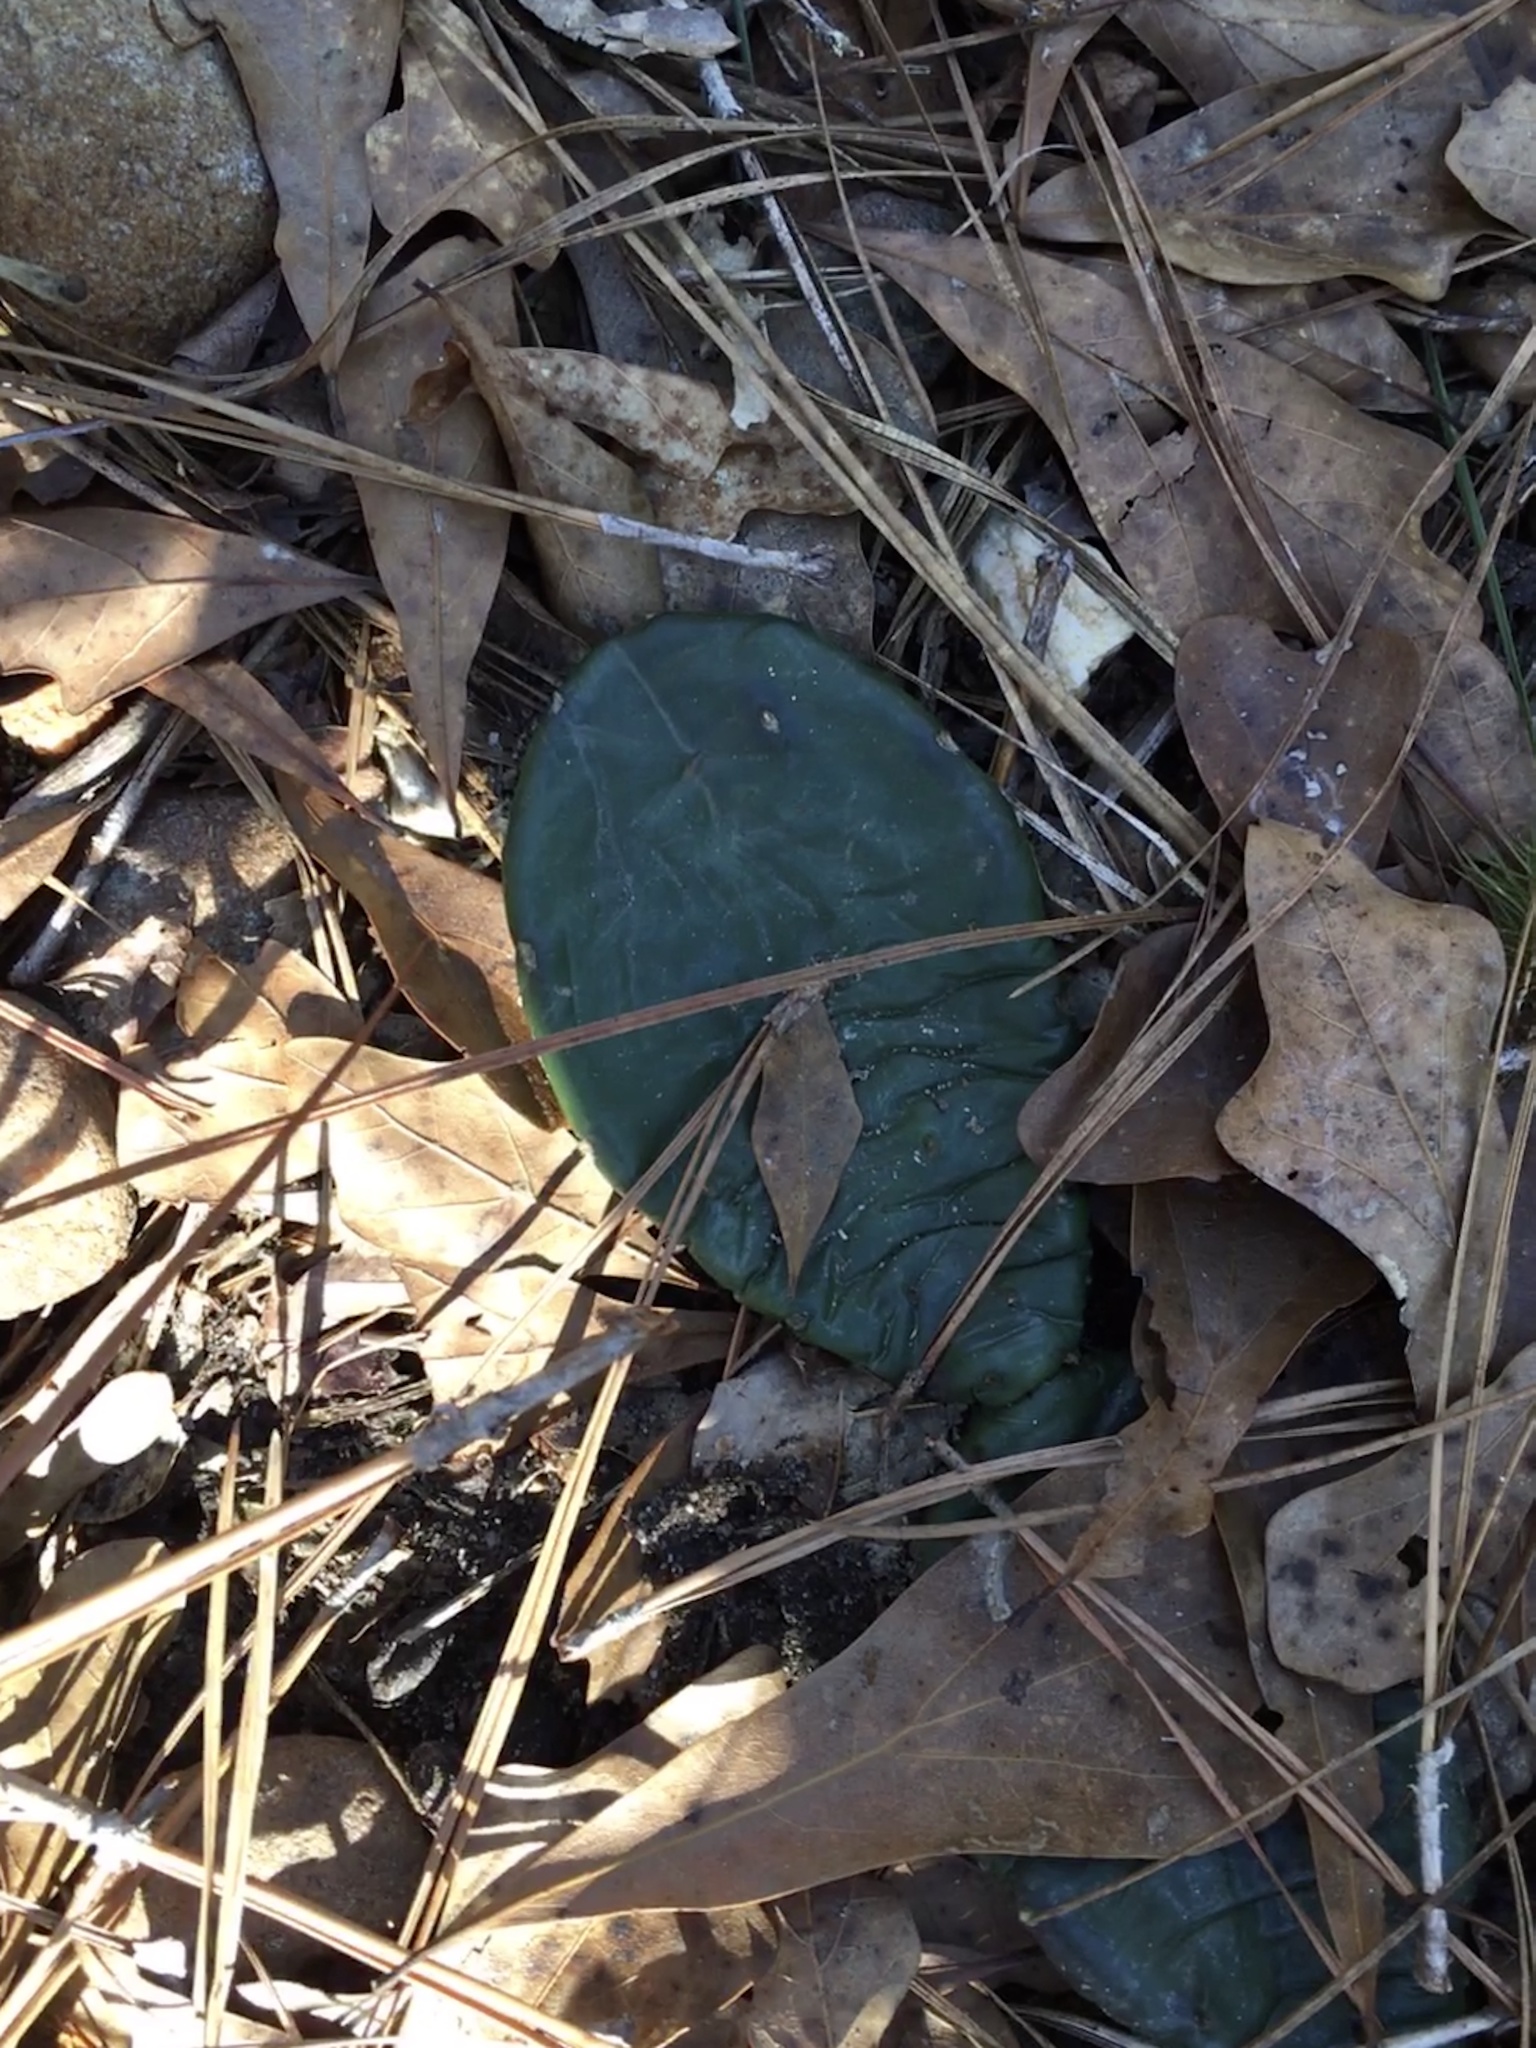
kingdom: Plantae
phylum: Tracheophyta
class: Magnoliopsida
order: Caryophyllales
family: Cactaceae
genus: Opuntia
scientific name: Opuntia mesacantha
